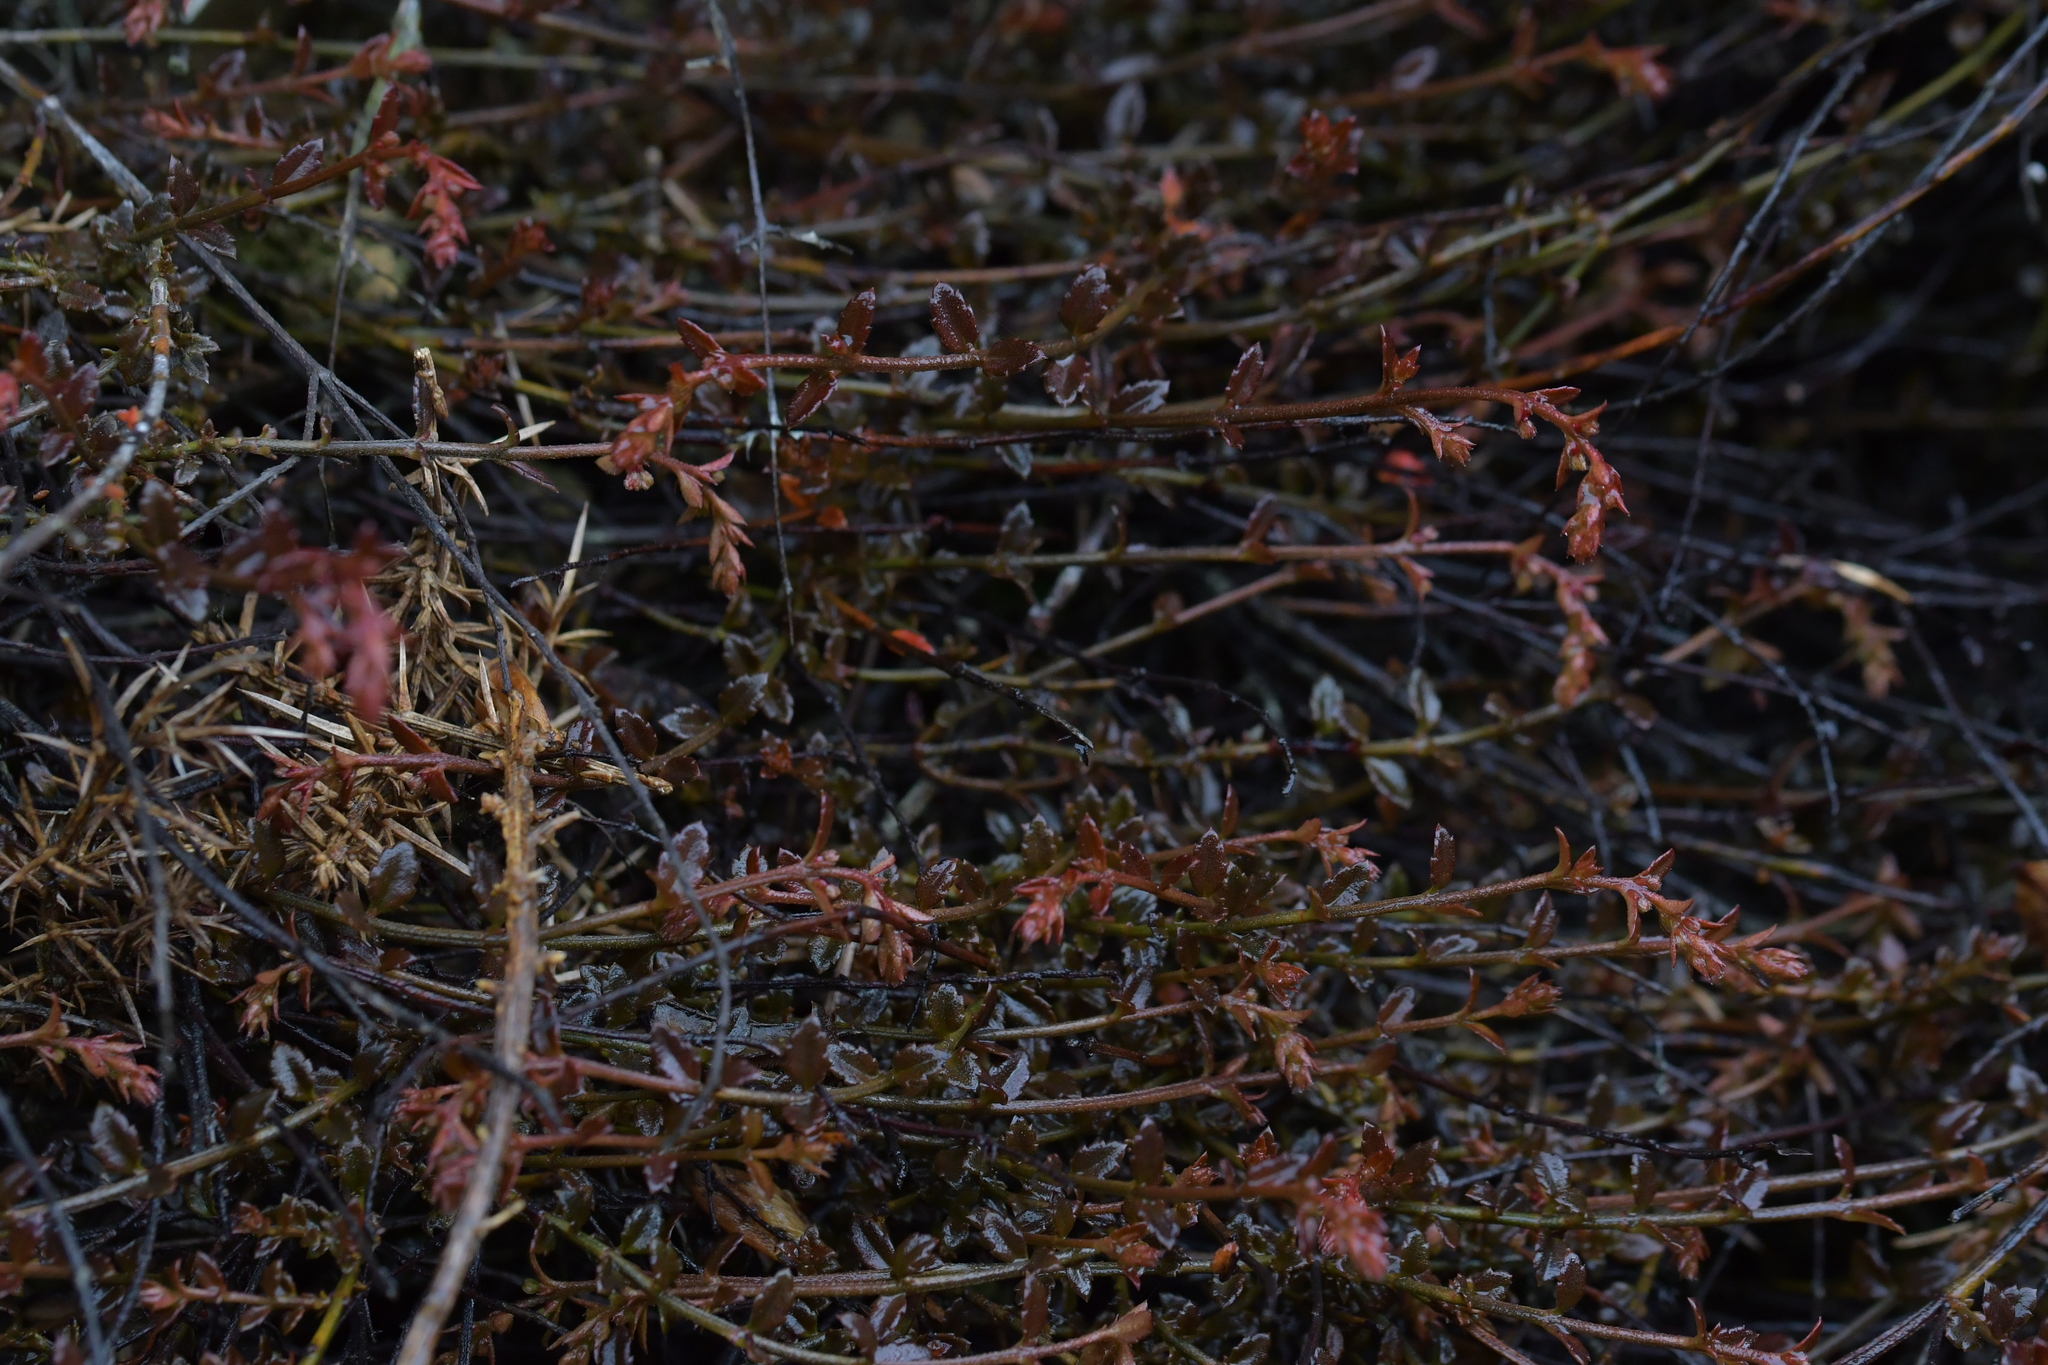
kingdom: Plantae
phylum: Tracheophyta
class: Magnoliopsida
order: Saxifragales
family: Haloragaceae
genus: Gonocarpus
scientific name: Gonocarpus incanus
